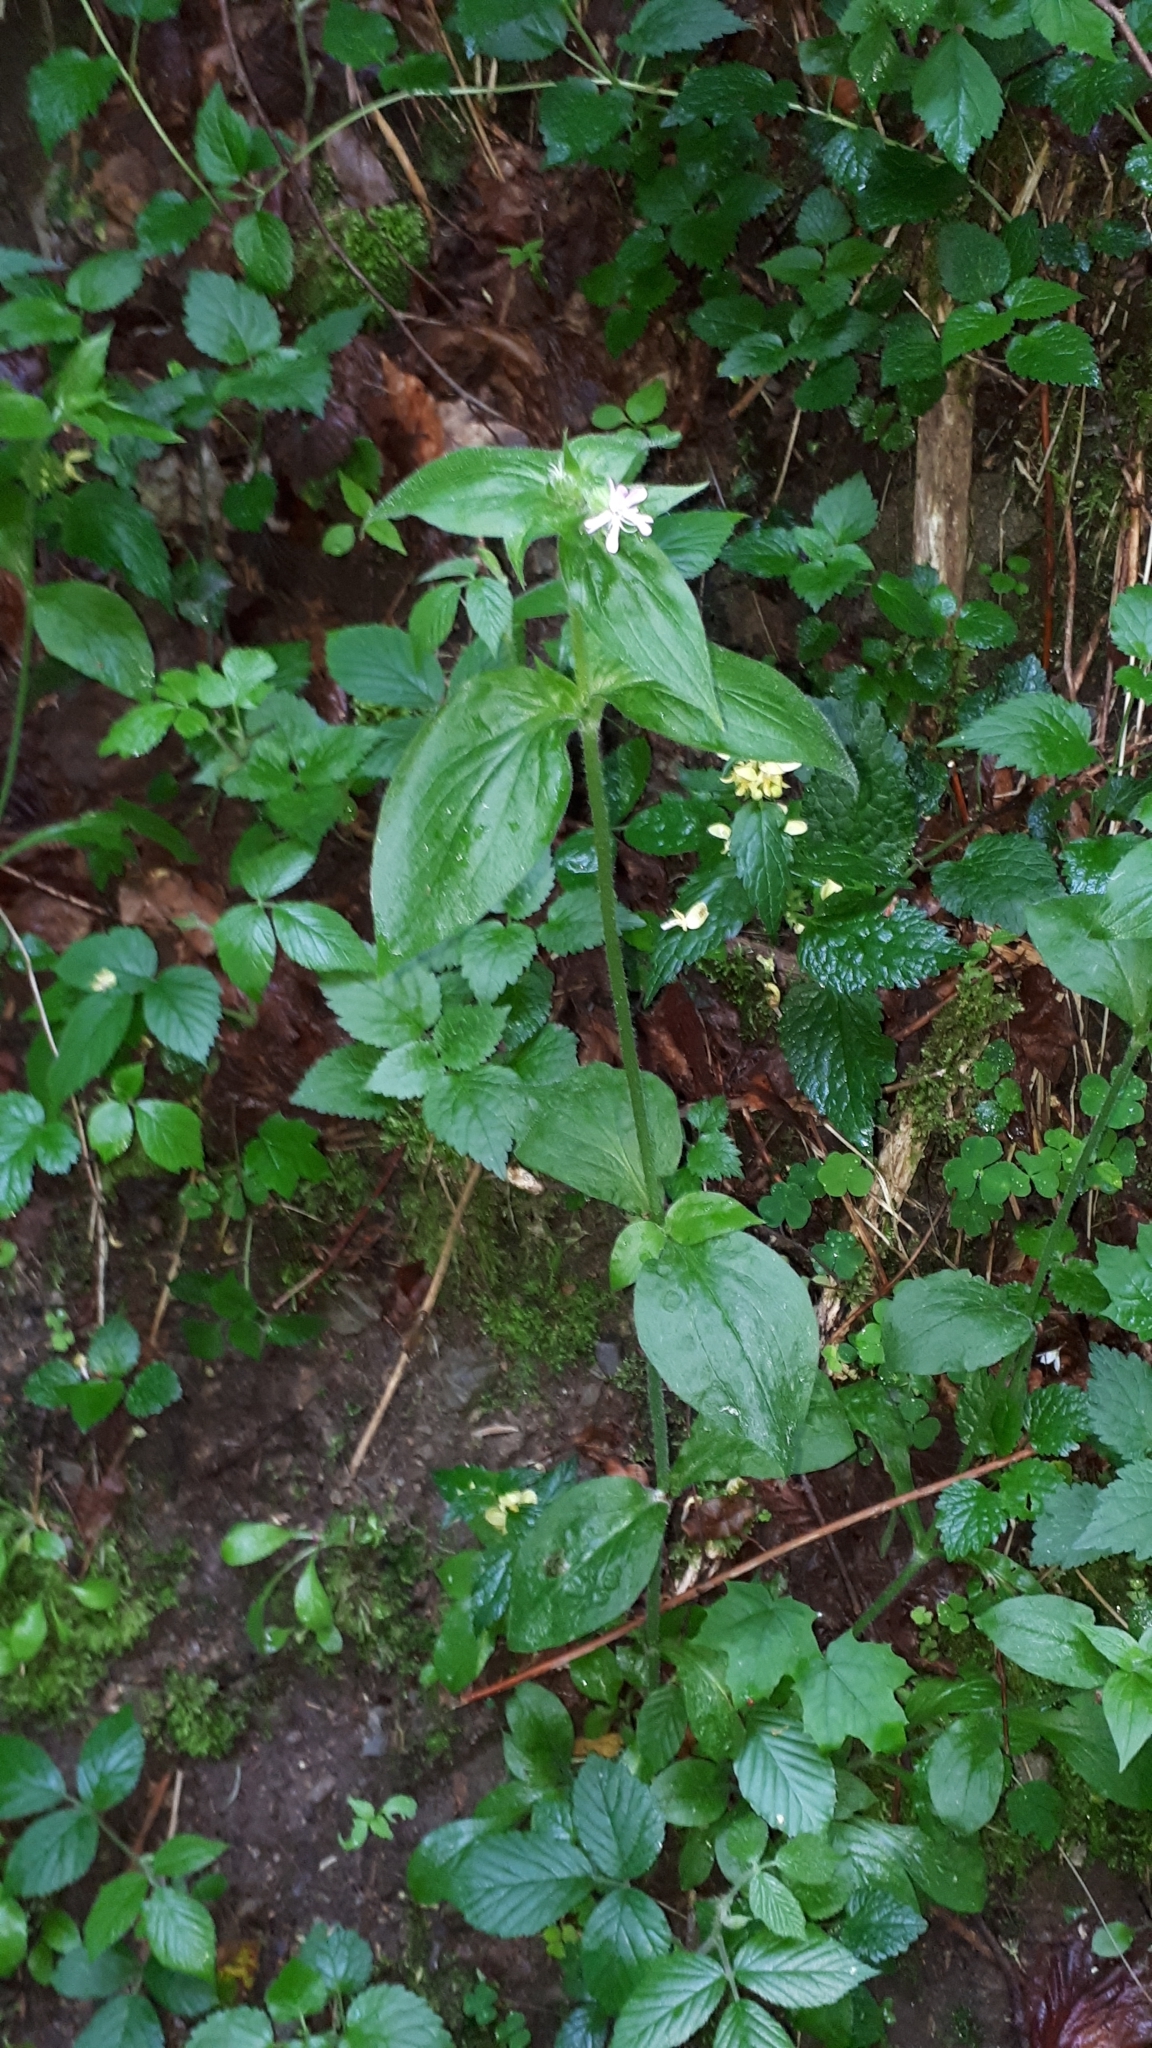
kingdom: Plantae
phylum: Tracheophyta
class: Magnoliopsida
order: Caryophyllales
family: Caryophyllaceae
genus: Silene
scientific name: Silene dioica
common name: Red campion
